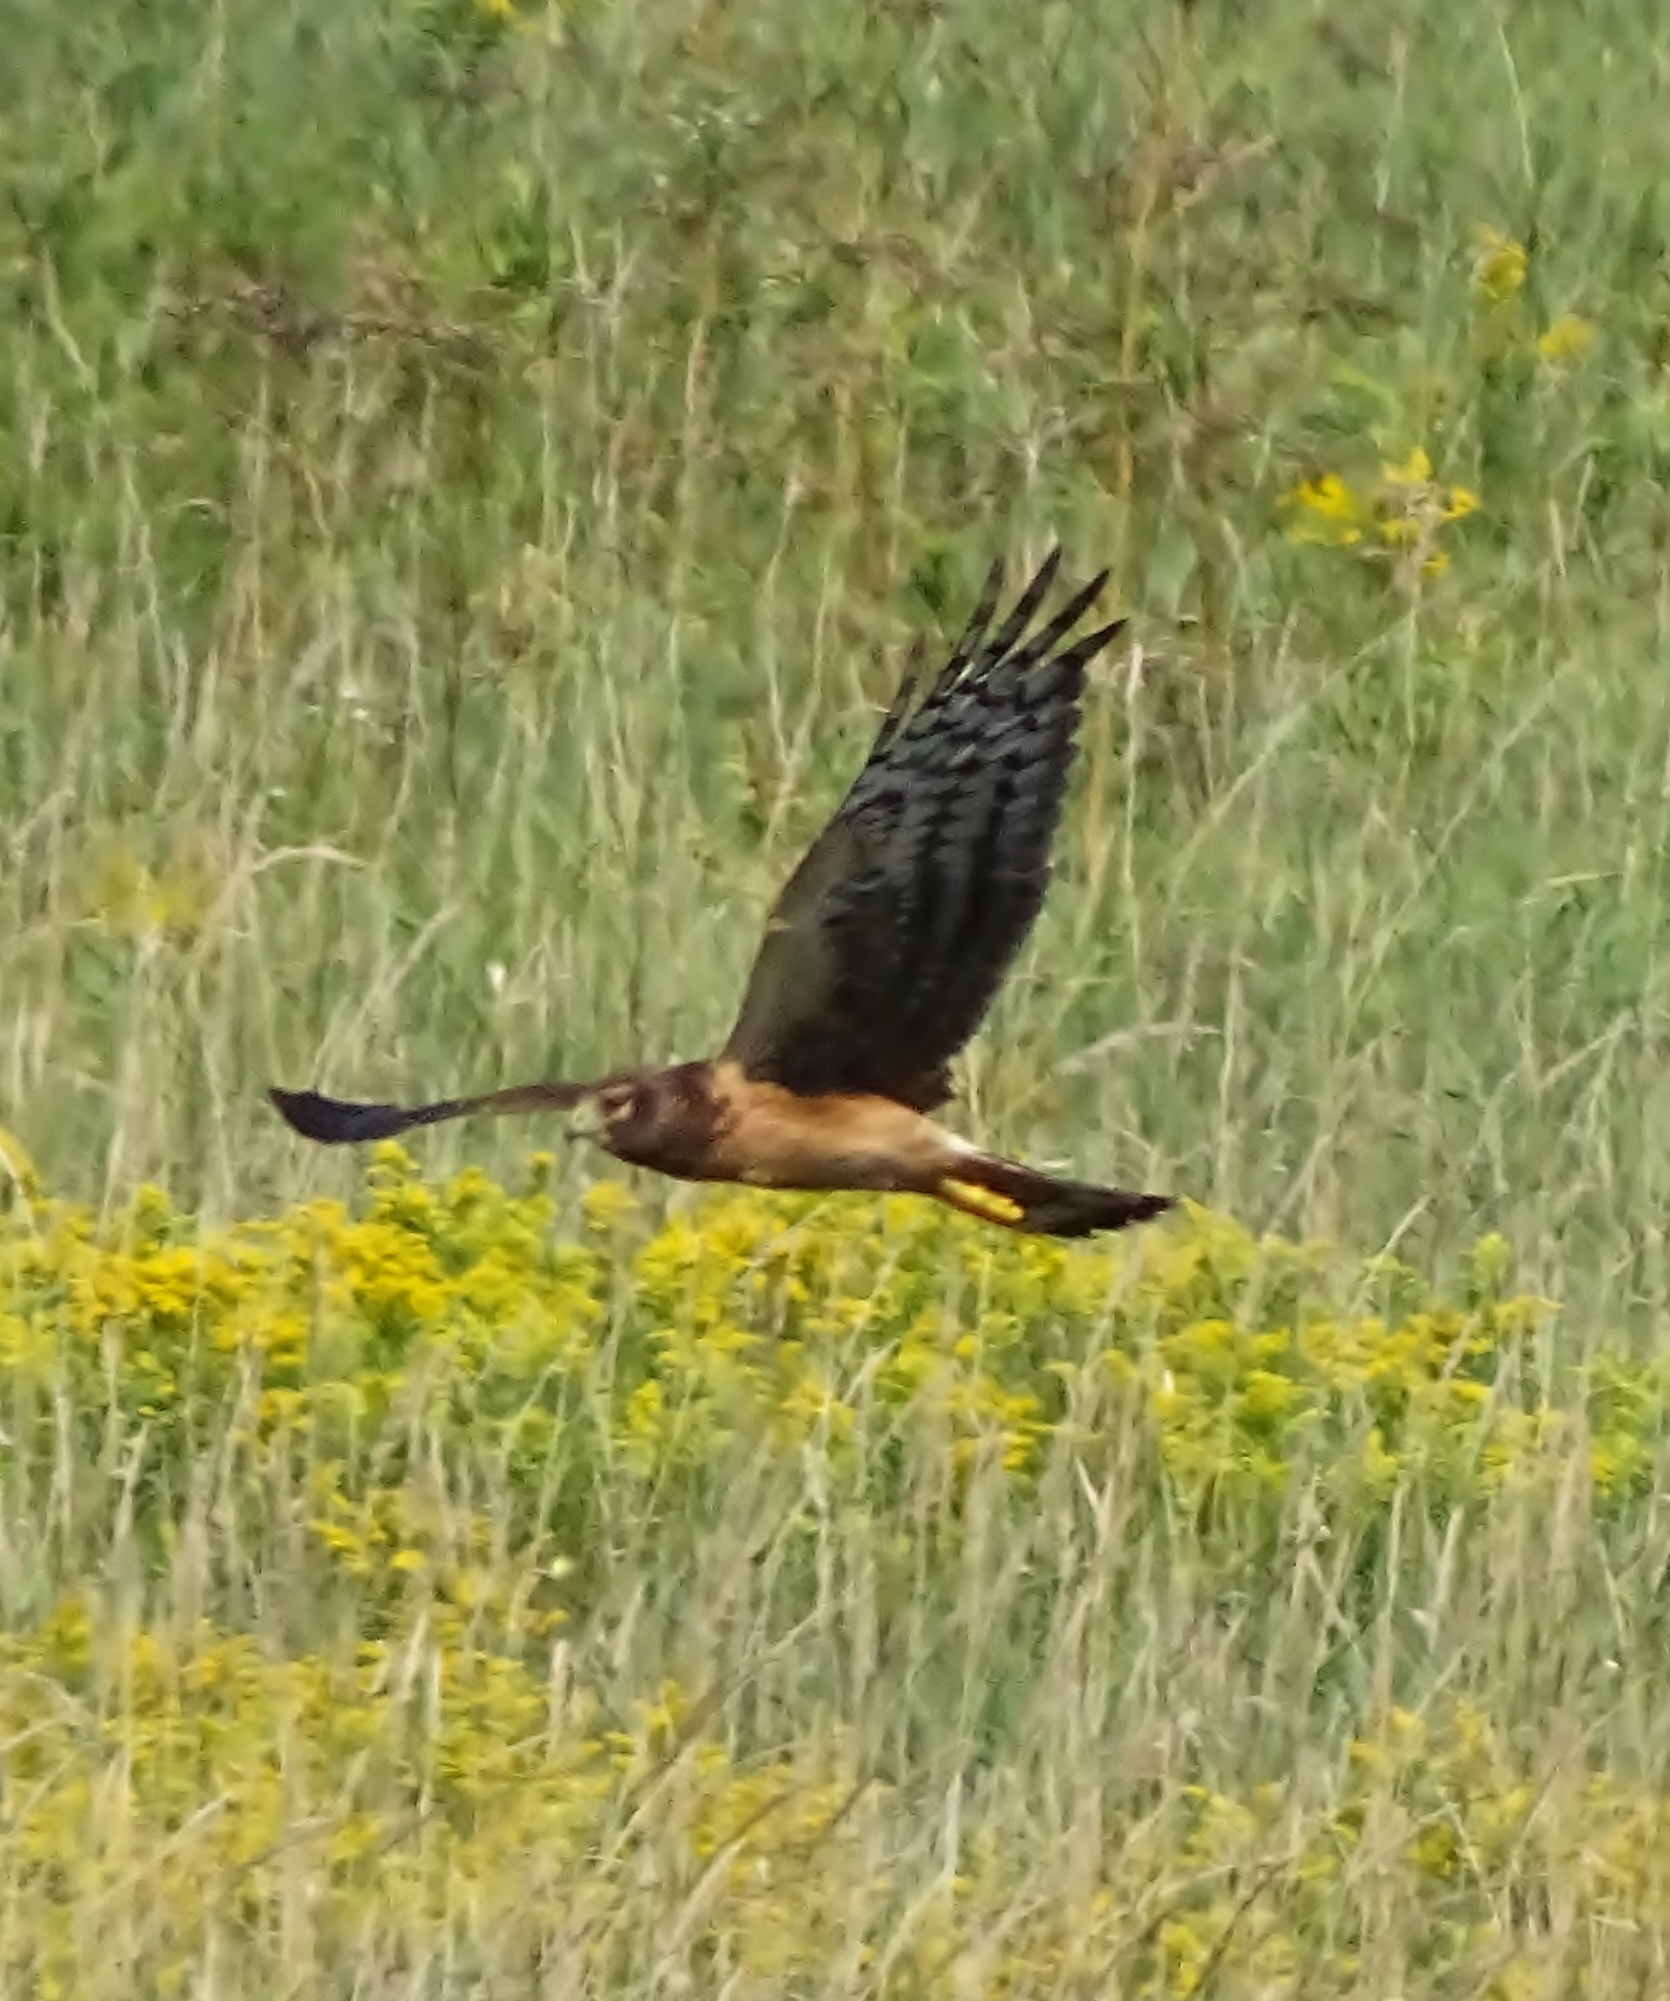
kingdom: Animalia
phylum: Chordata
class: Aves
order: Accipitriformes
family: Accipitridae
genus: Circus
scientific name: Circus cyaneus
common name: Hen harrier
